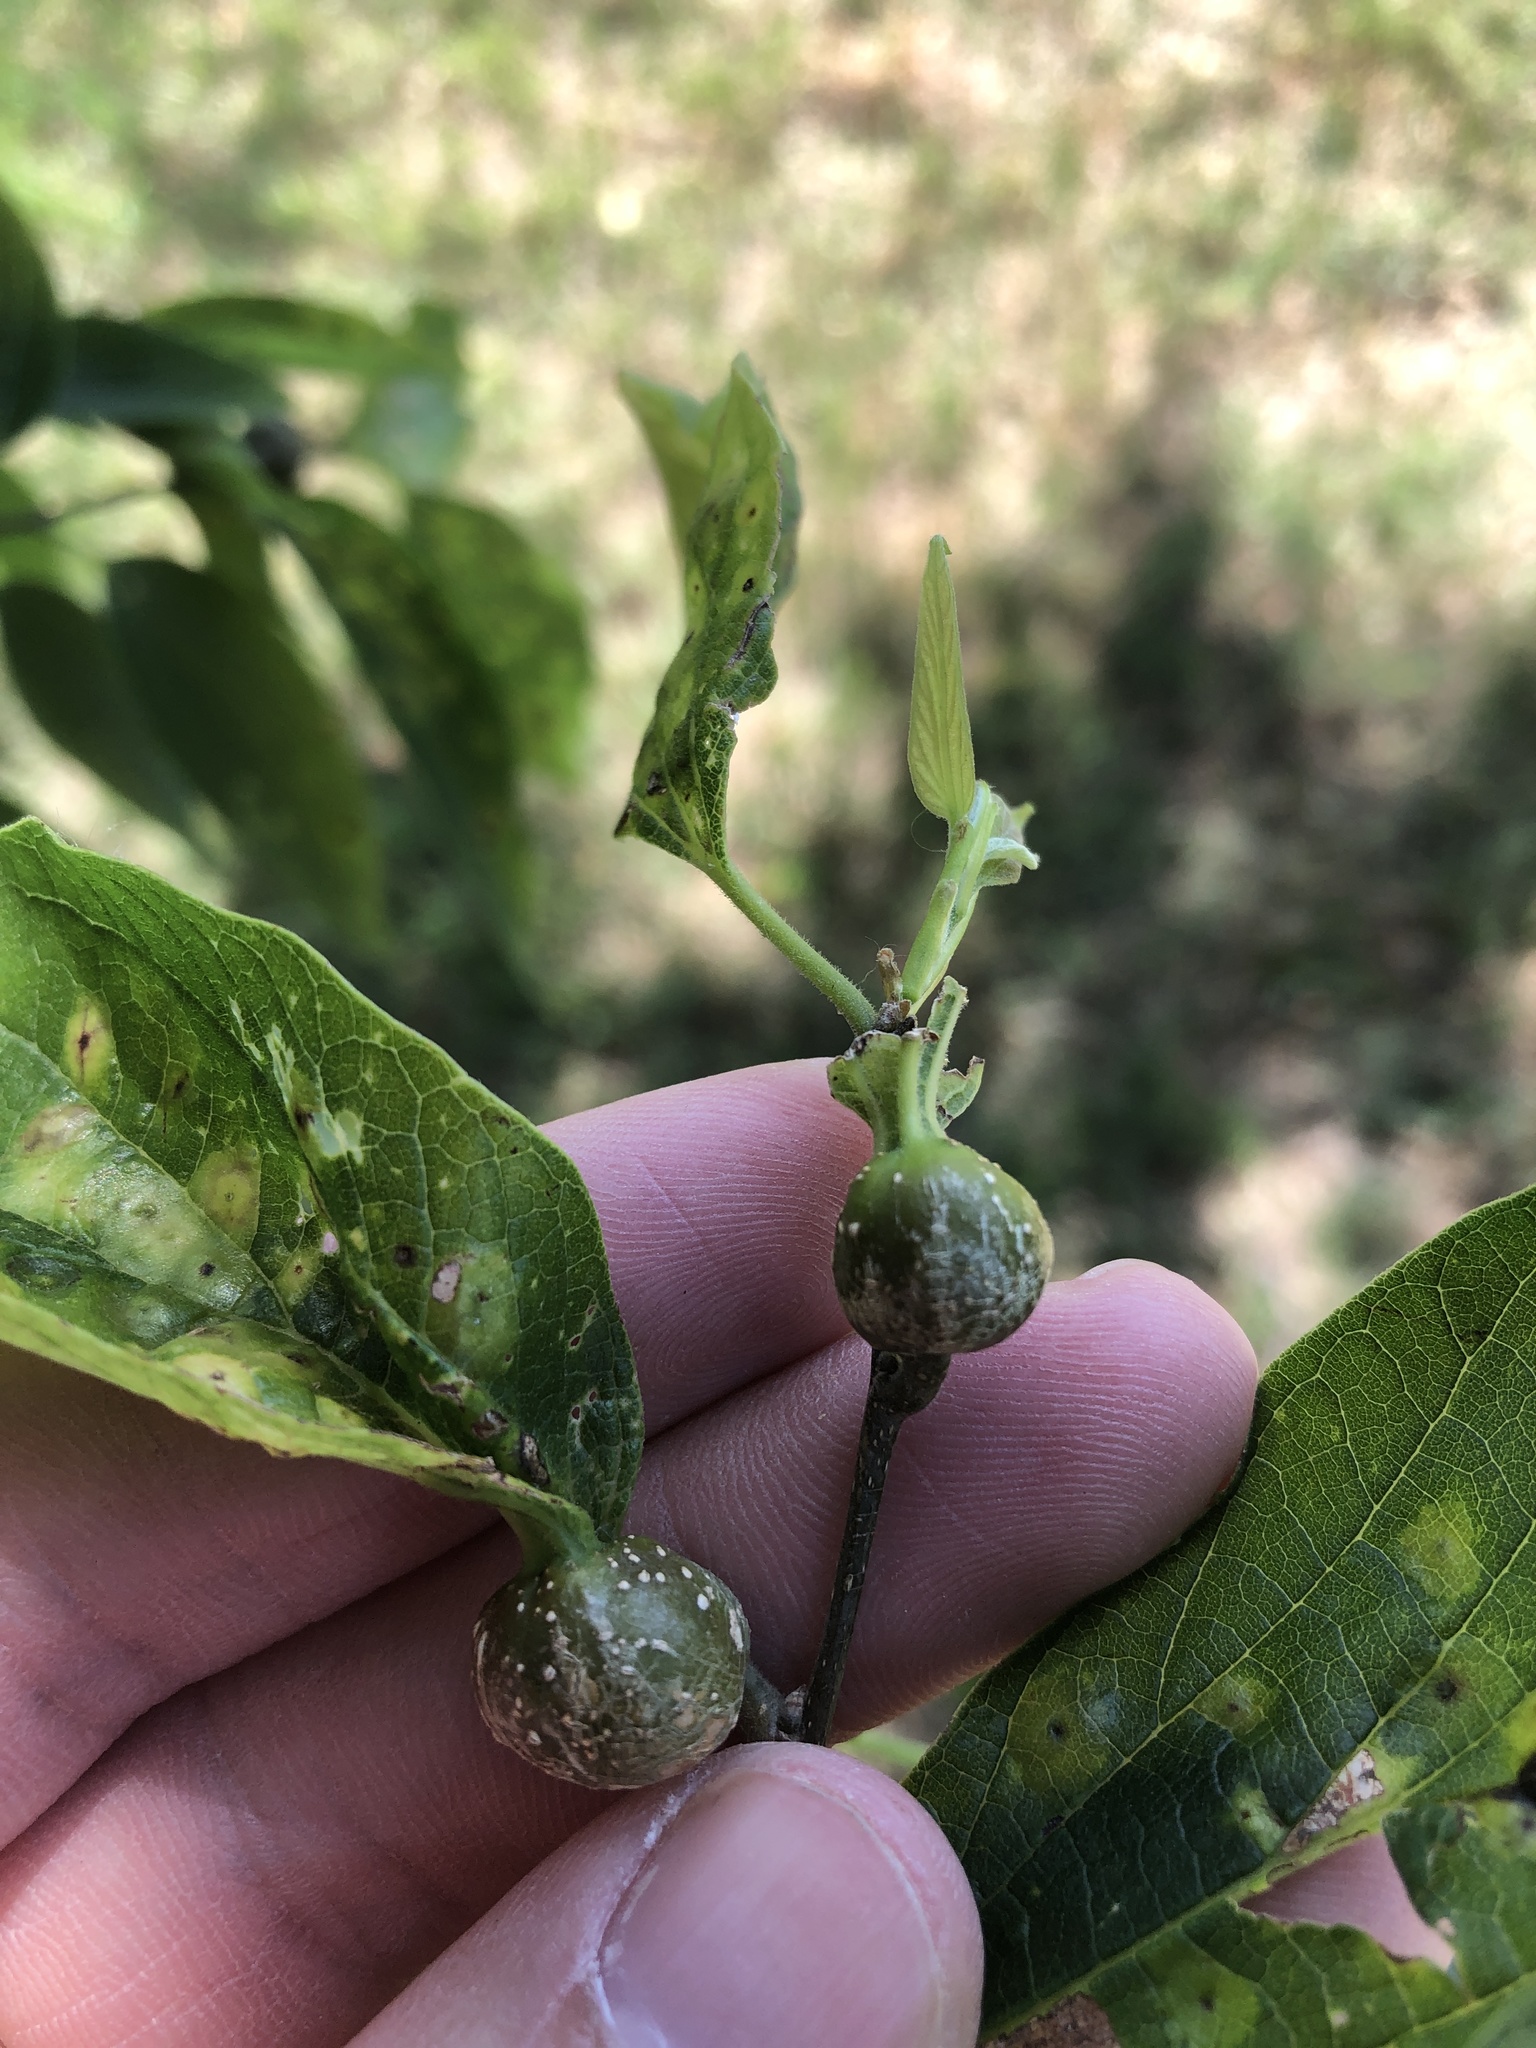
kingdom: Animalia
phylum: Arthropoda
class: Insecta
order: Hemiptera
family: Aphalaridae
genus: Pachypsylla
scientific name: Pachypsylla venusta
